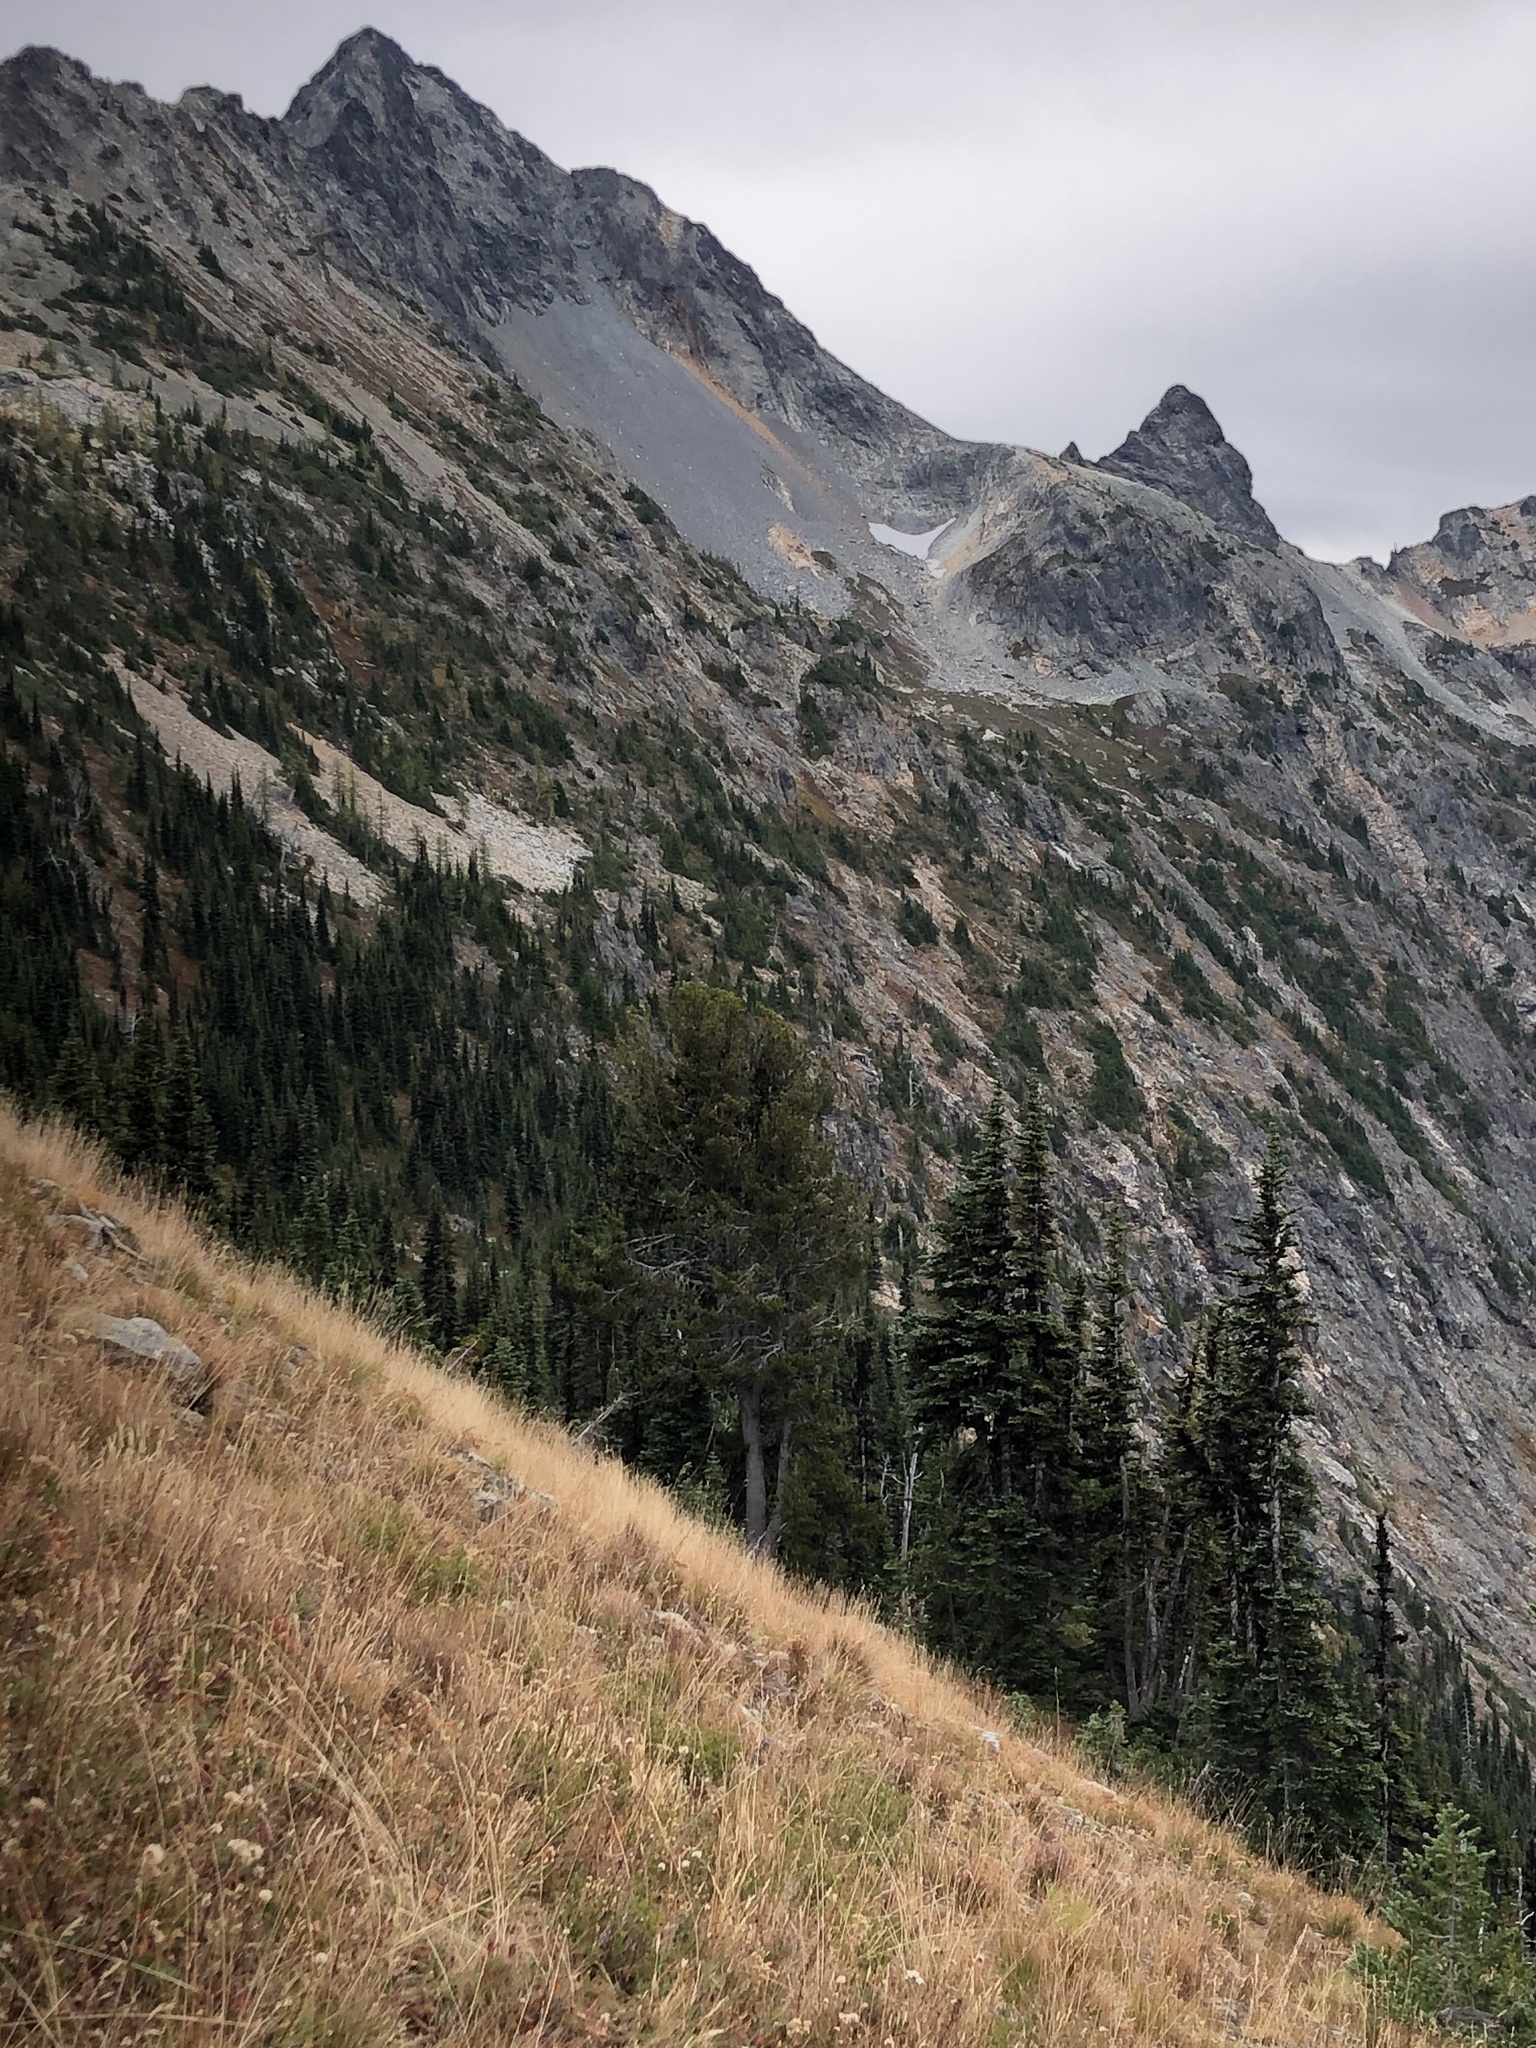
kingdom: Plantae
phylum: Tracheophyta
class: Pinopsida
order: Pinales
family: Pinaceae
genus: Pinus
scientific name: Pinus albicaulis
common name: Whitebark pine
